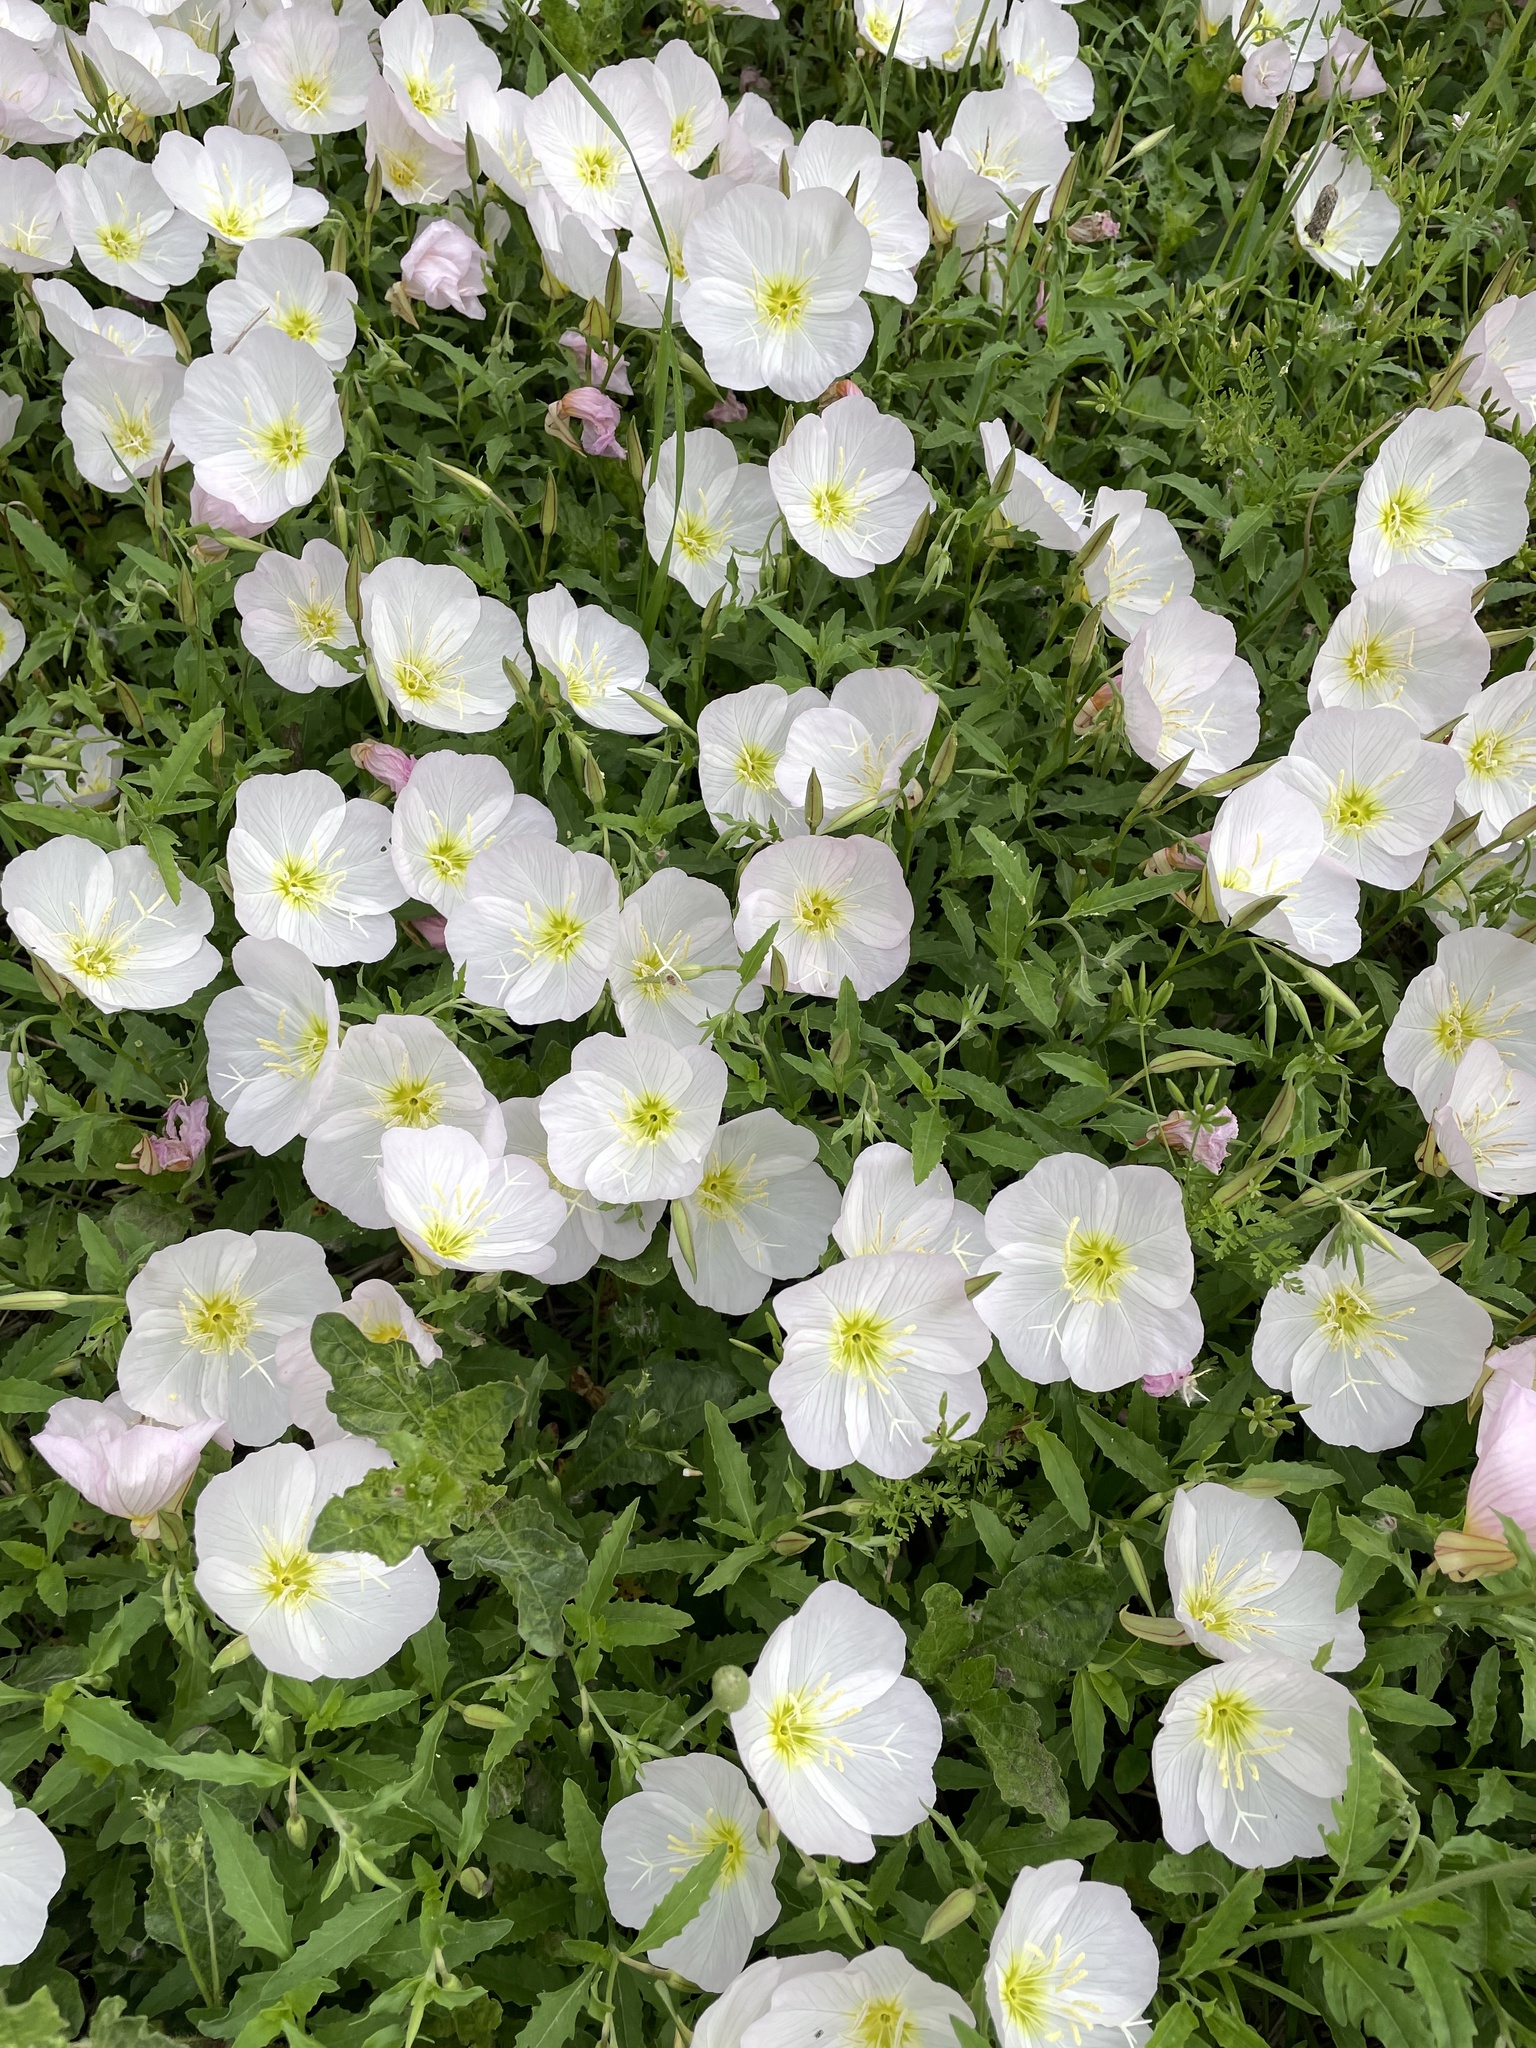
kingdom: Plantae
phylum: Tracheophyta
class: Magnoliopsida
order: Myrtales
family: Onagraceae
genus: Oenothera
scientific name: Oenothera speciosa
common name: White evening-primrose
